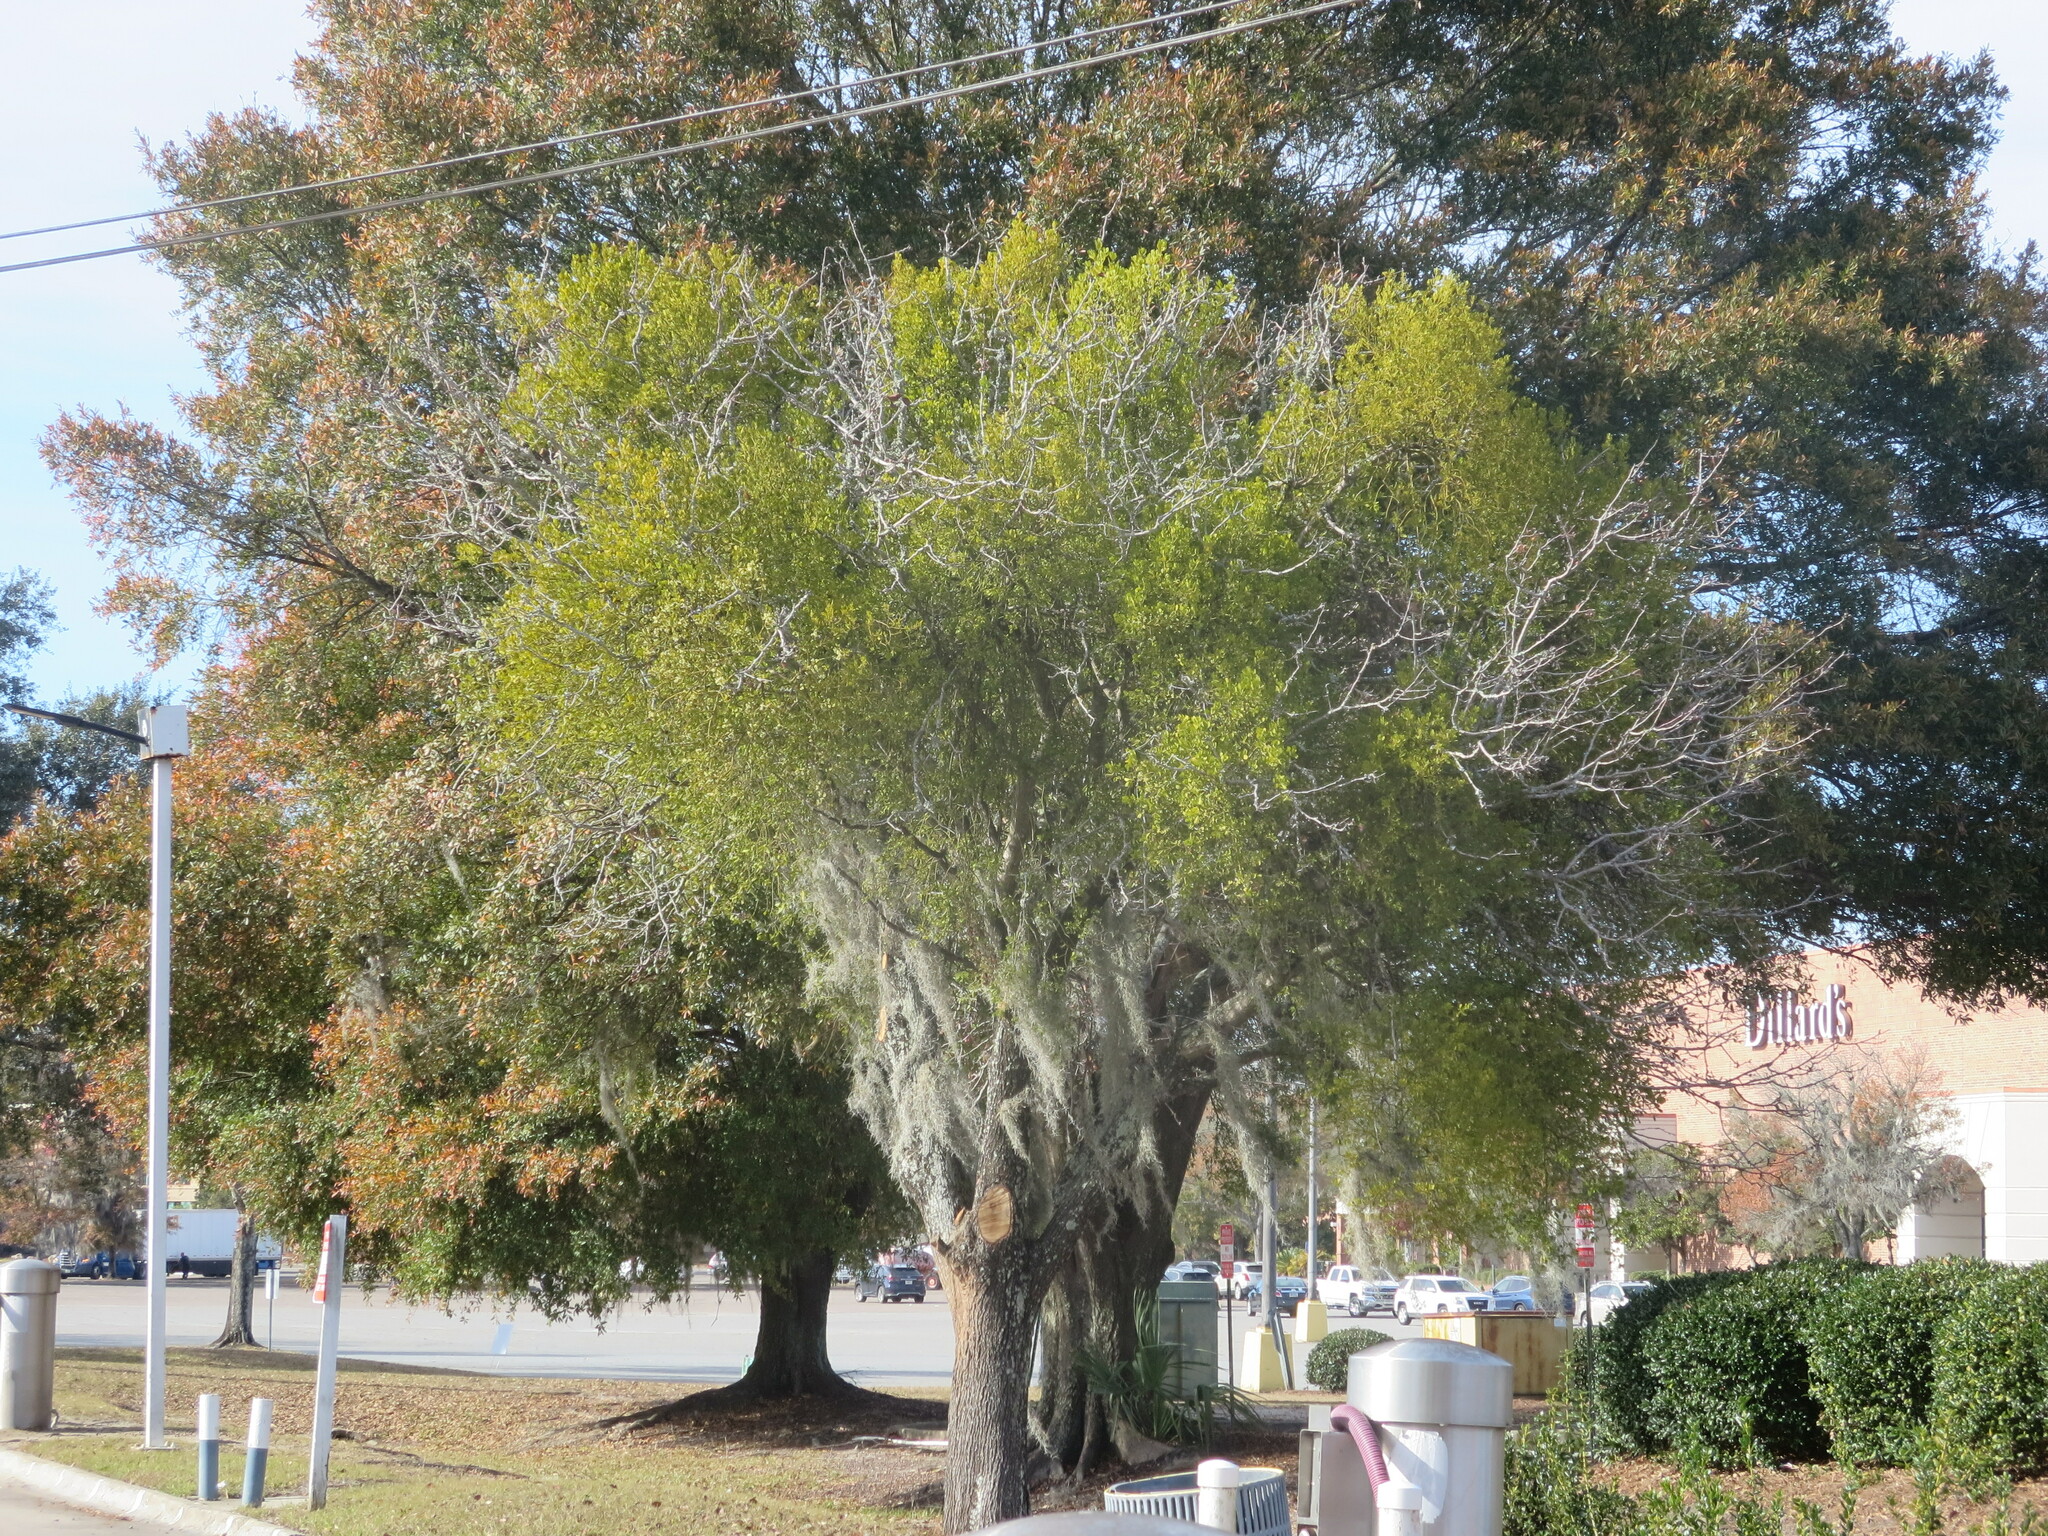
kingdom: Plantae
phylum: Tracheophyta
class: Magnoliopsida
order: Santalales
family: Viscaceae
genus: Phoradendron
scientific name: Phoradendron leucarpum
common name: Pacific mistletoe
